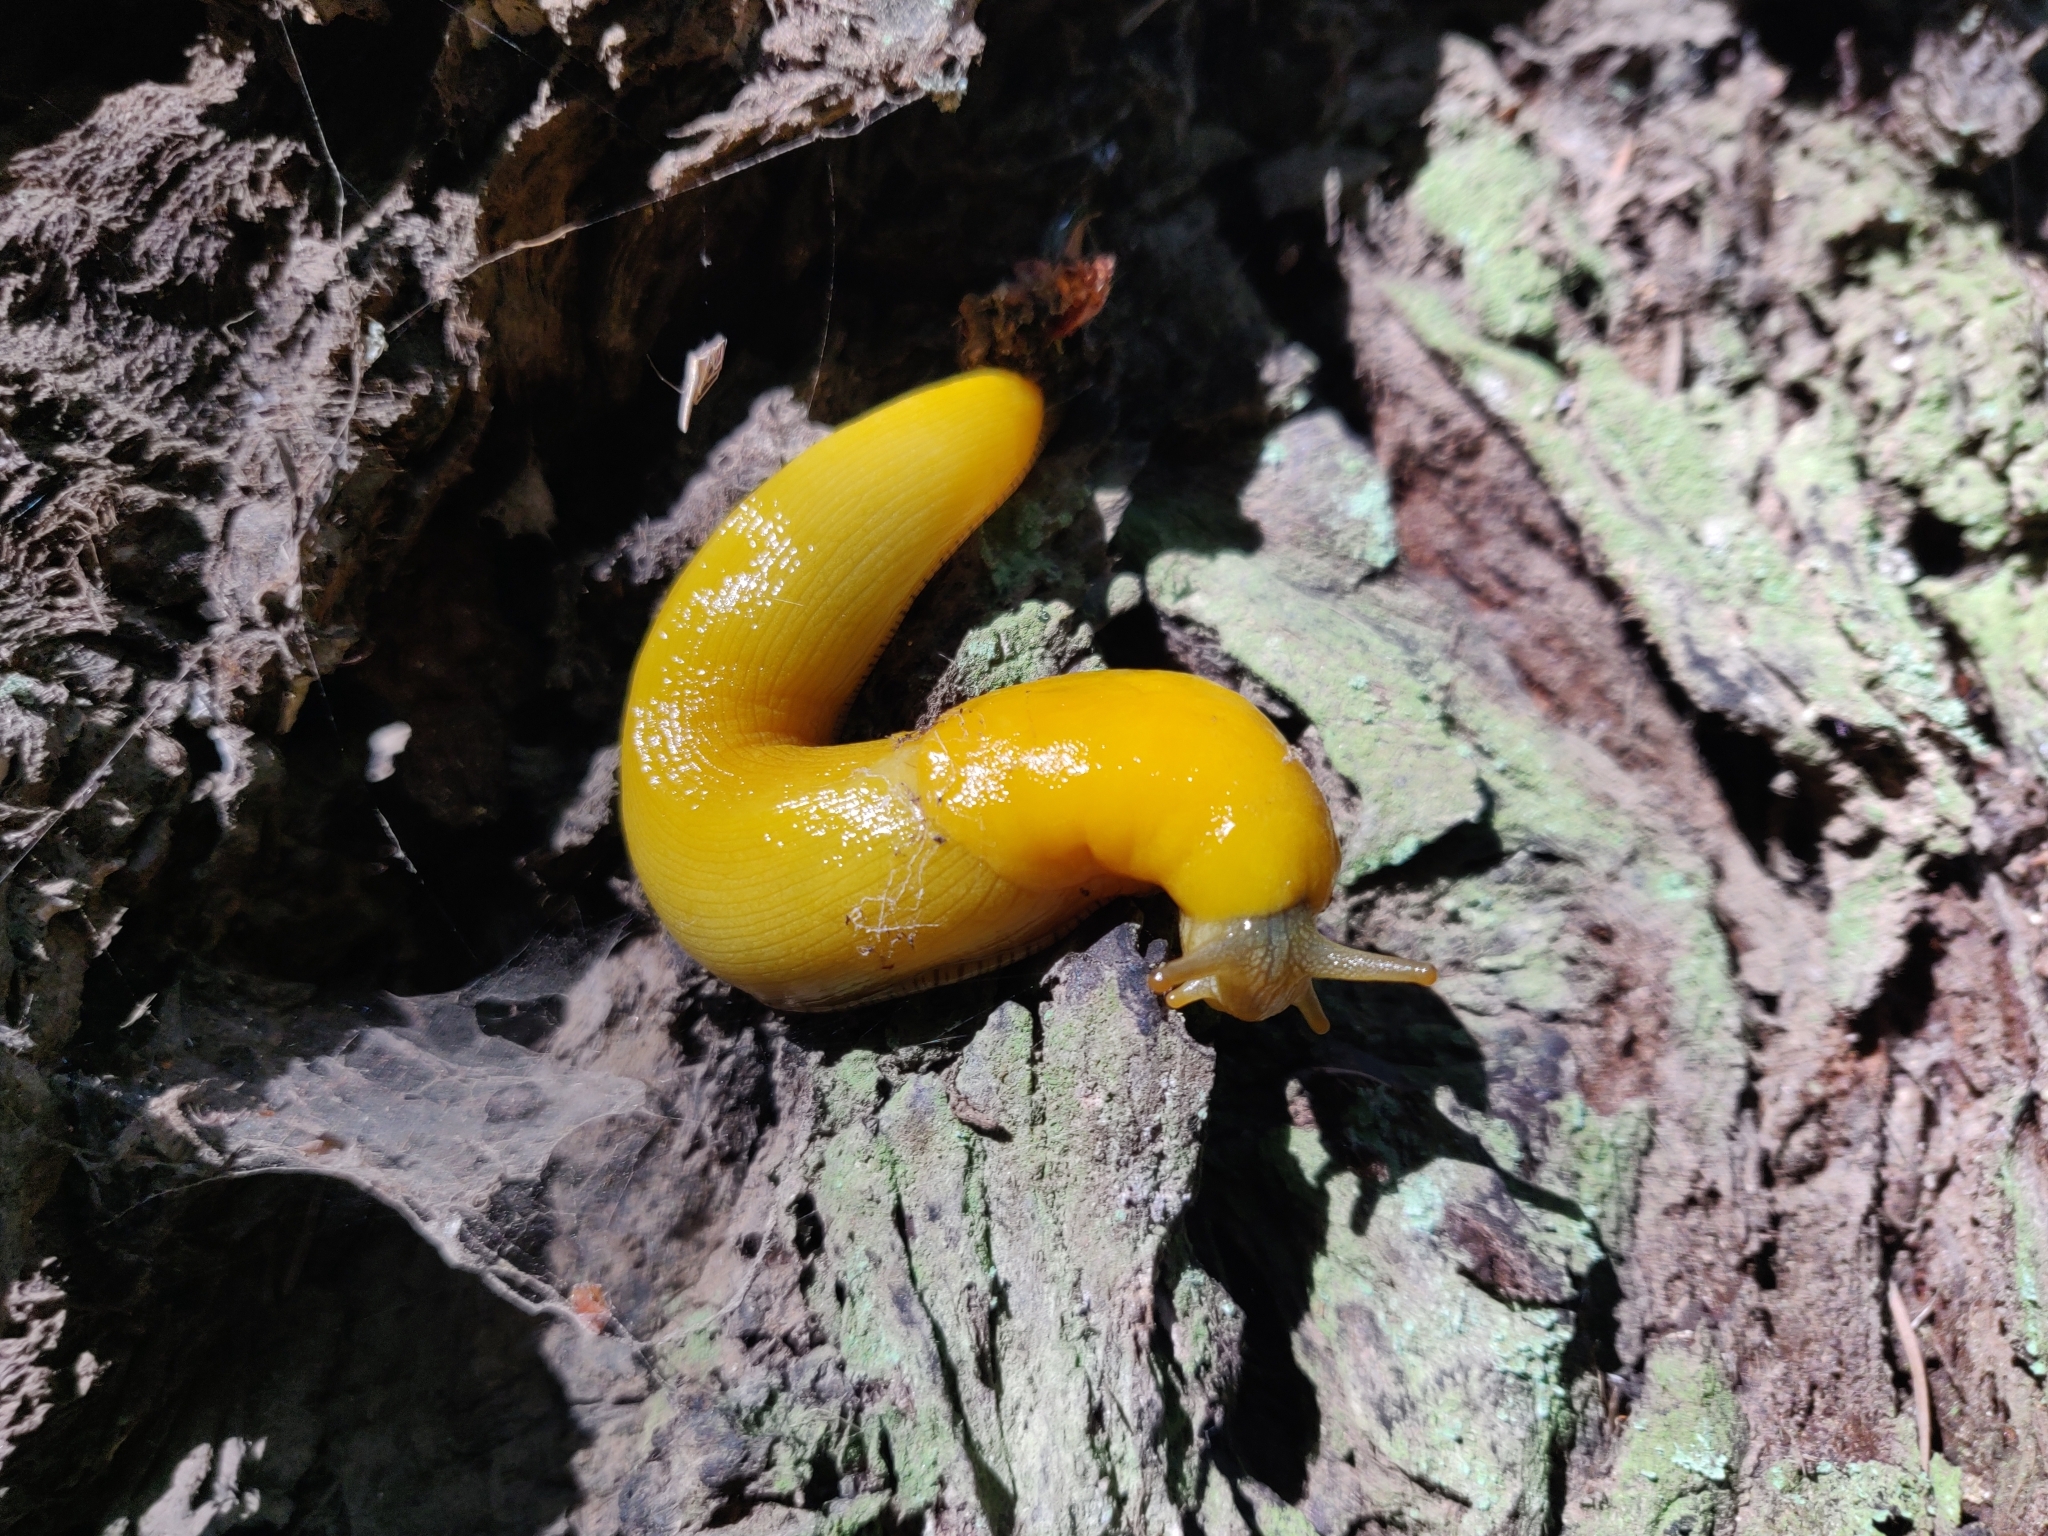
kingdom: Animalia
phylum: Mollusca
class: Gastropoda
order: Stylommatophora
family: Ariolimacidae
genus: Ariolimax
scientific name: Ariolimax californicus
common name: California banana slug
